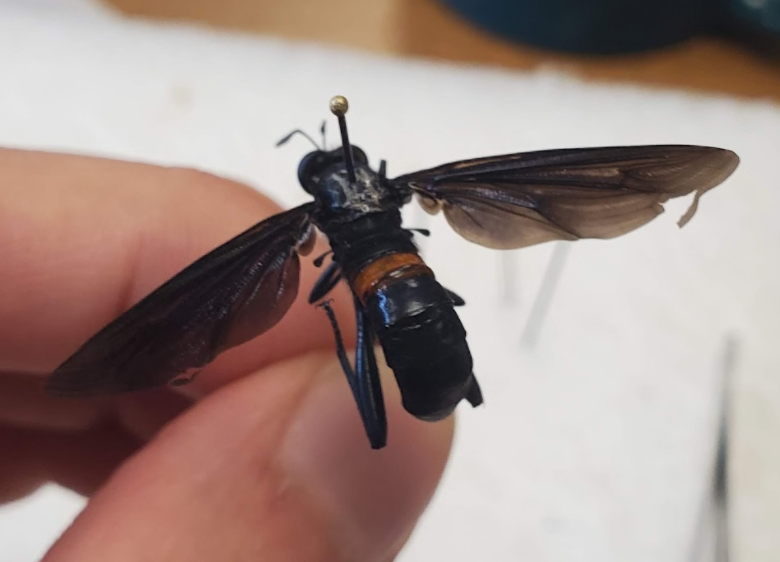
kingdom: Animalia
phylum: Arthropoda
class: Insecta
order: Diptera
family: Mydidae
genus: Mydas
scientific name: Mydas clavatus
